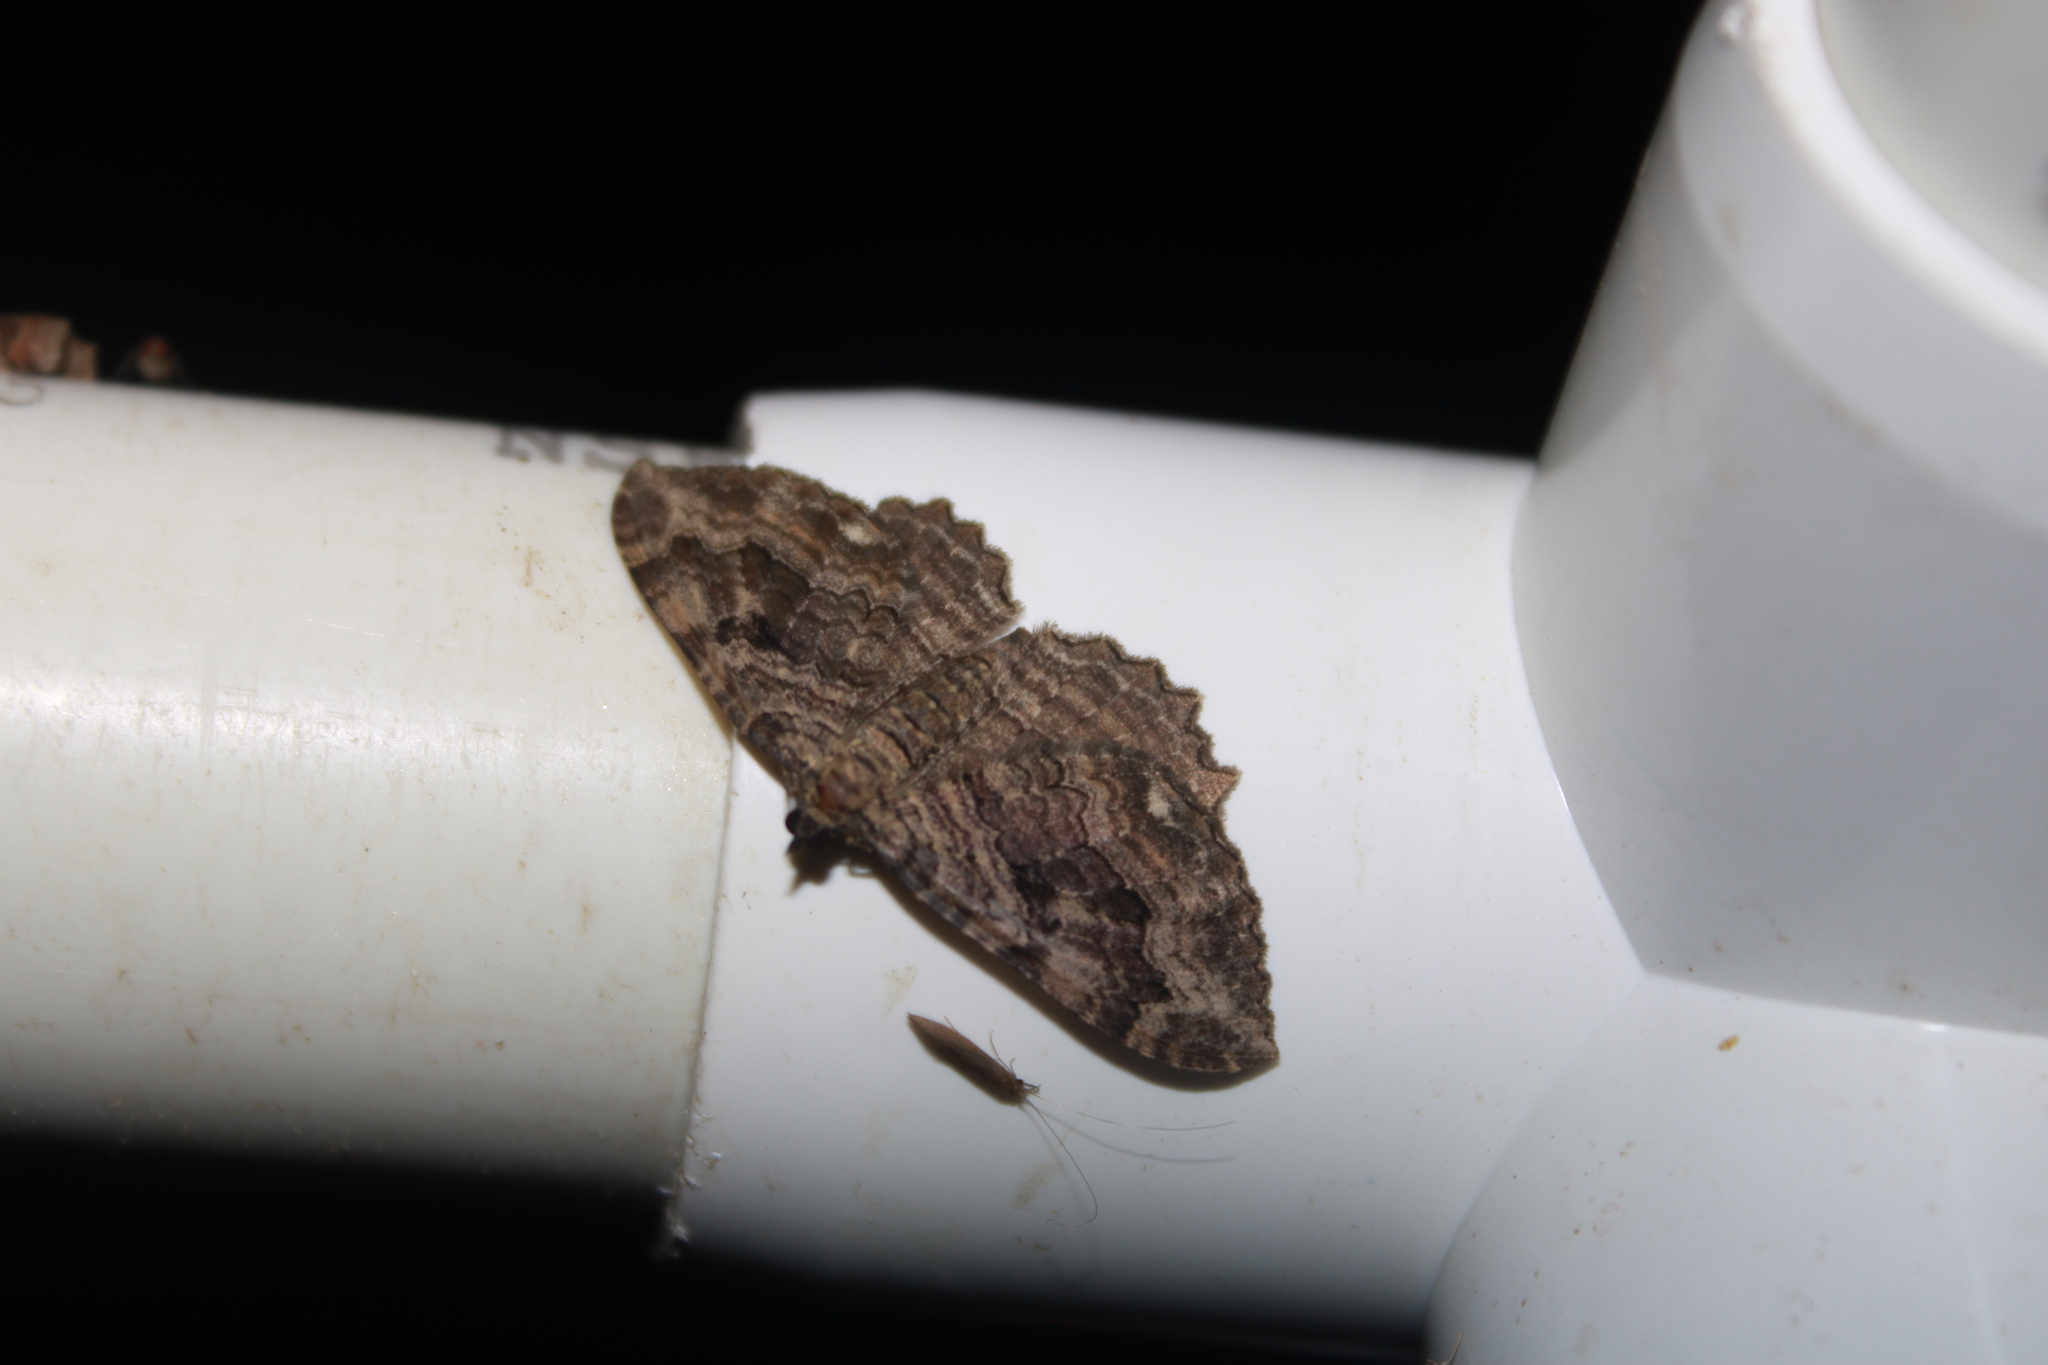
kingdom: Animalia
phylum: Arthropoda
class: Insecta
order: Lepidoptera
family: Geometridae
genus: Rheumaptera
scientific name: Rheumaptera
